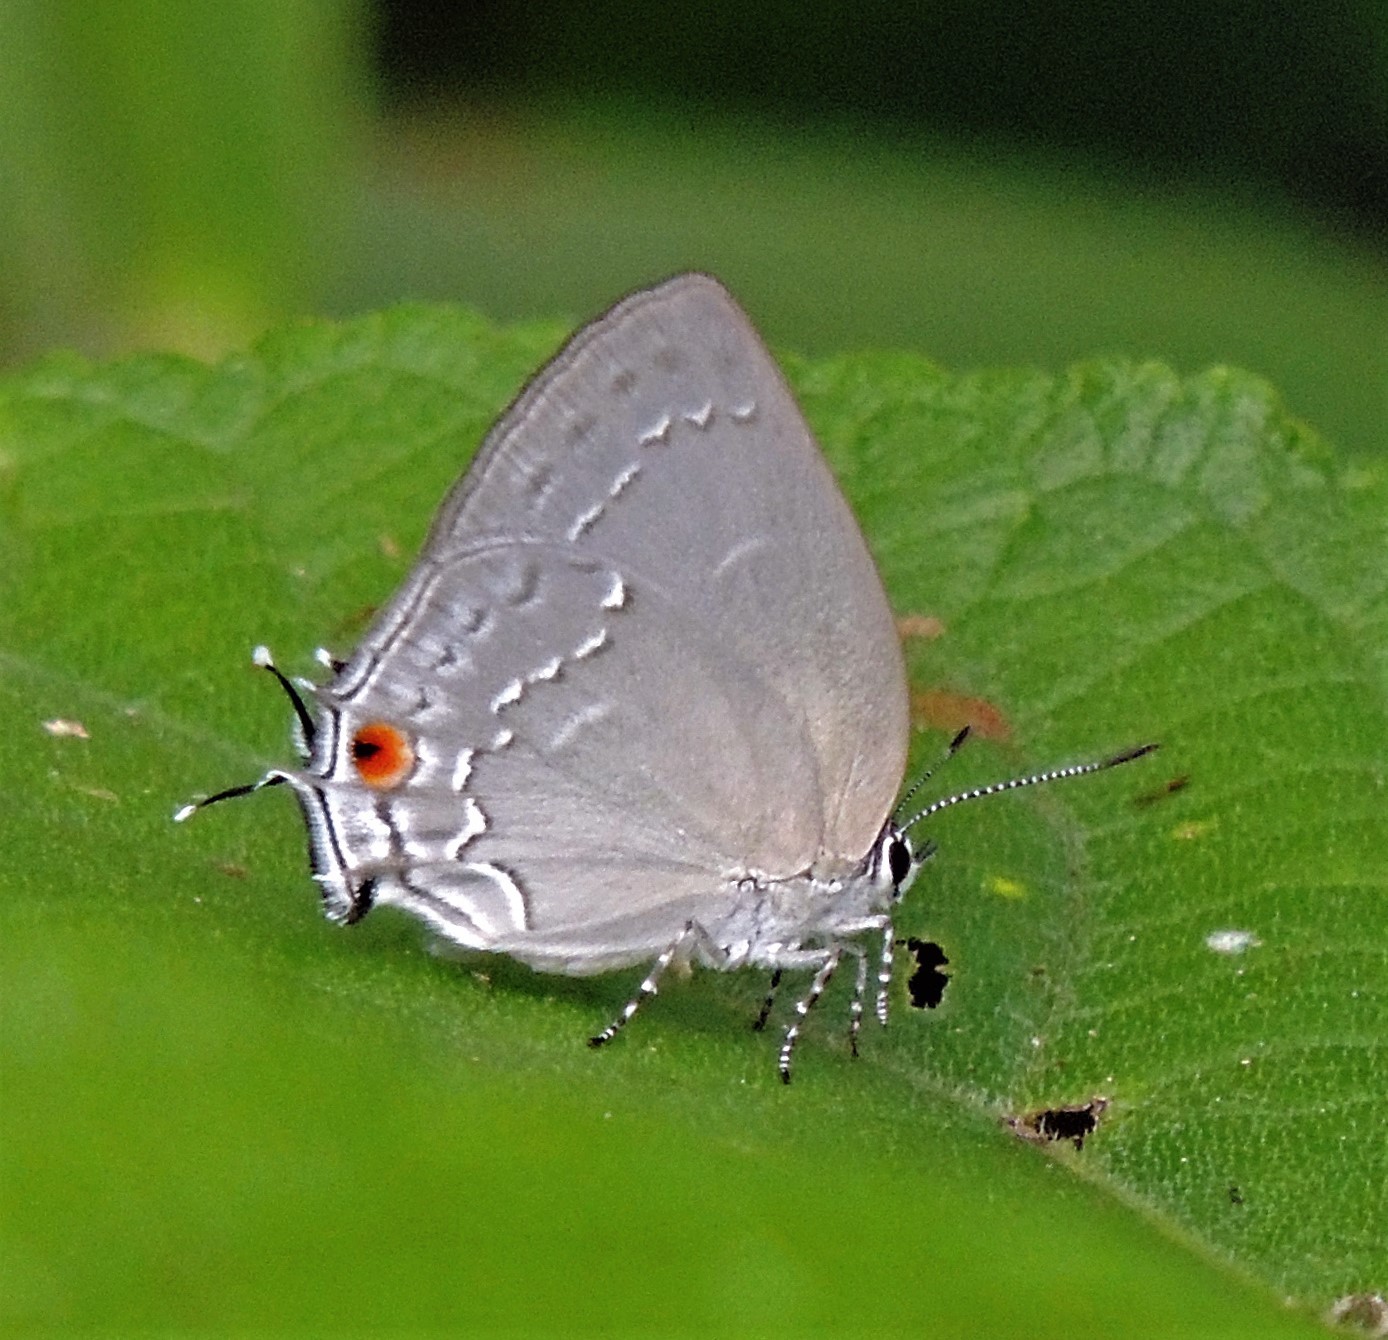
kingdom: Animalia
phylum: Arthropoda
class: Insecta
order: Lepidoptera
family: Lycaenidae
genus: Strephonota
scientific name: Strephonota tephraeus
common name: Pearly-gray hairstreak
